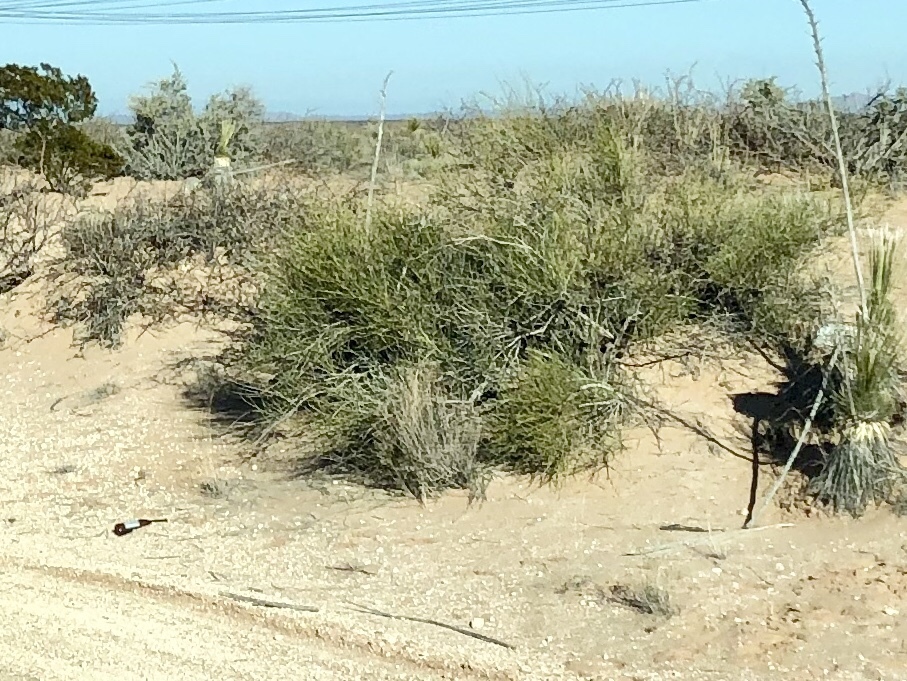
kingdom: Plantae
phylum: Tracheophyta
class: Gnetopsida
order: Ephedrales
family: Ephedraceae
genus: Ephedra
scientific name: Ephedra trifurca
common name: Mexican-tea
